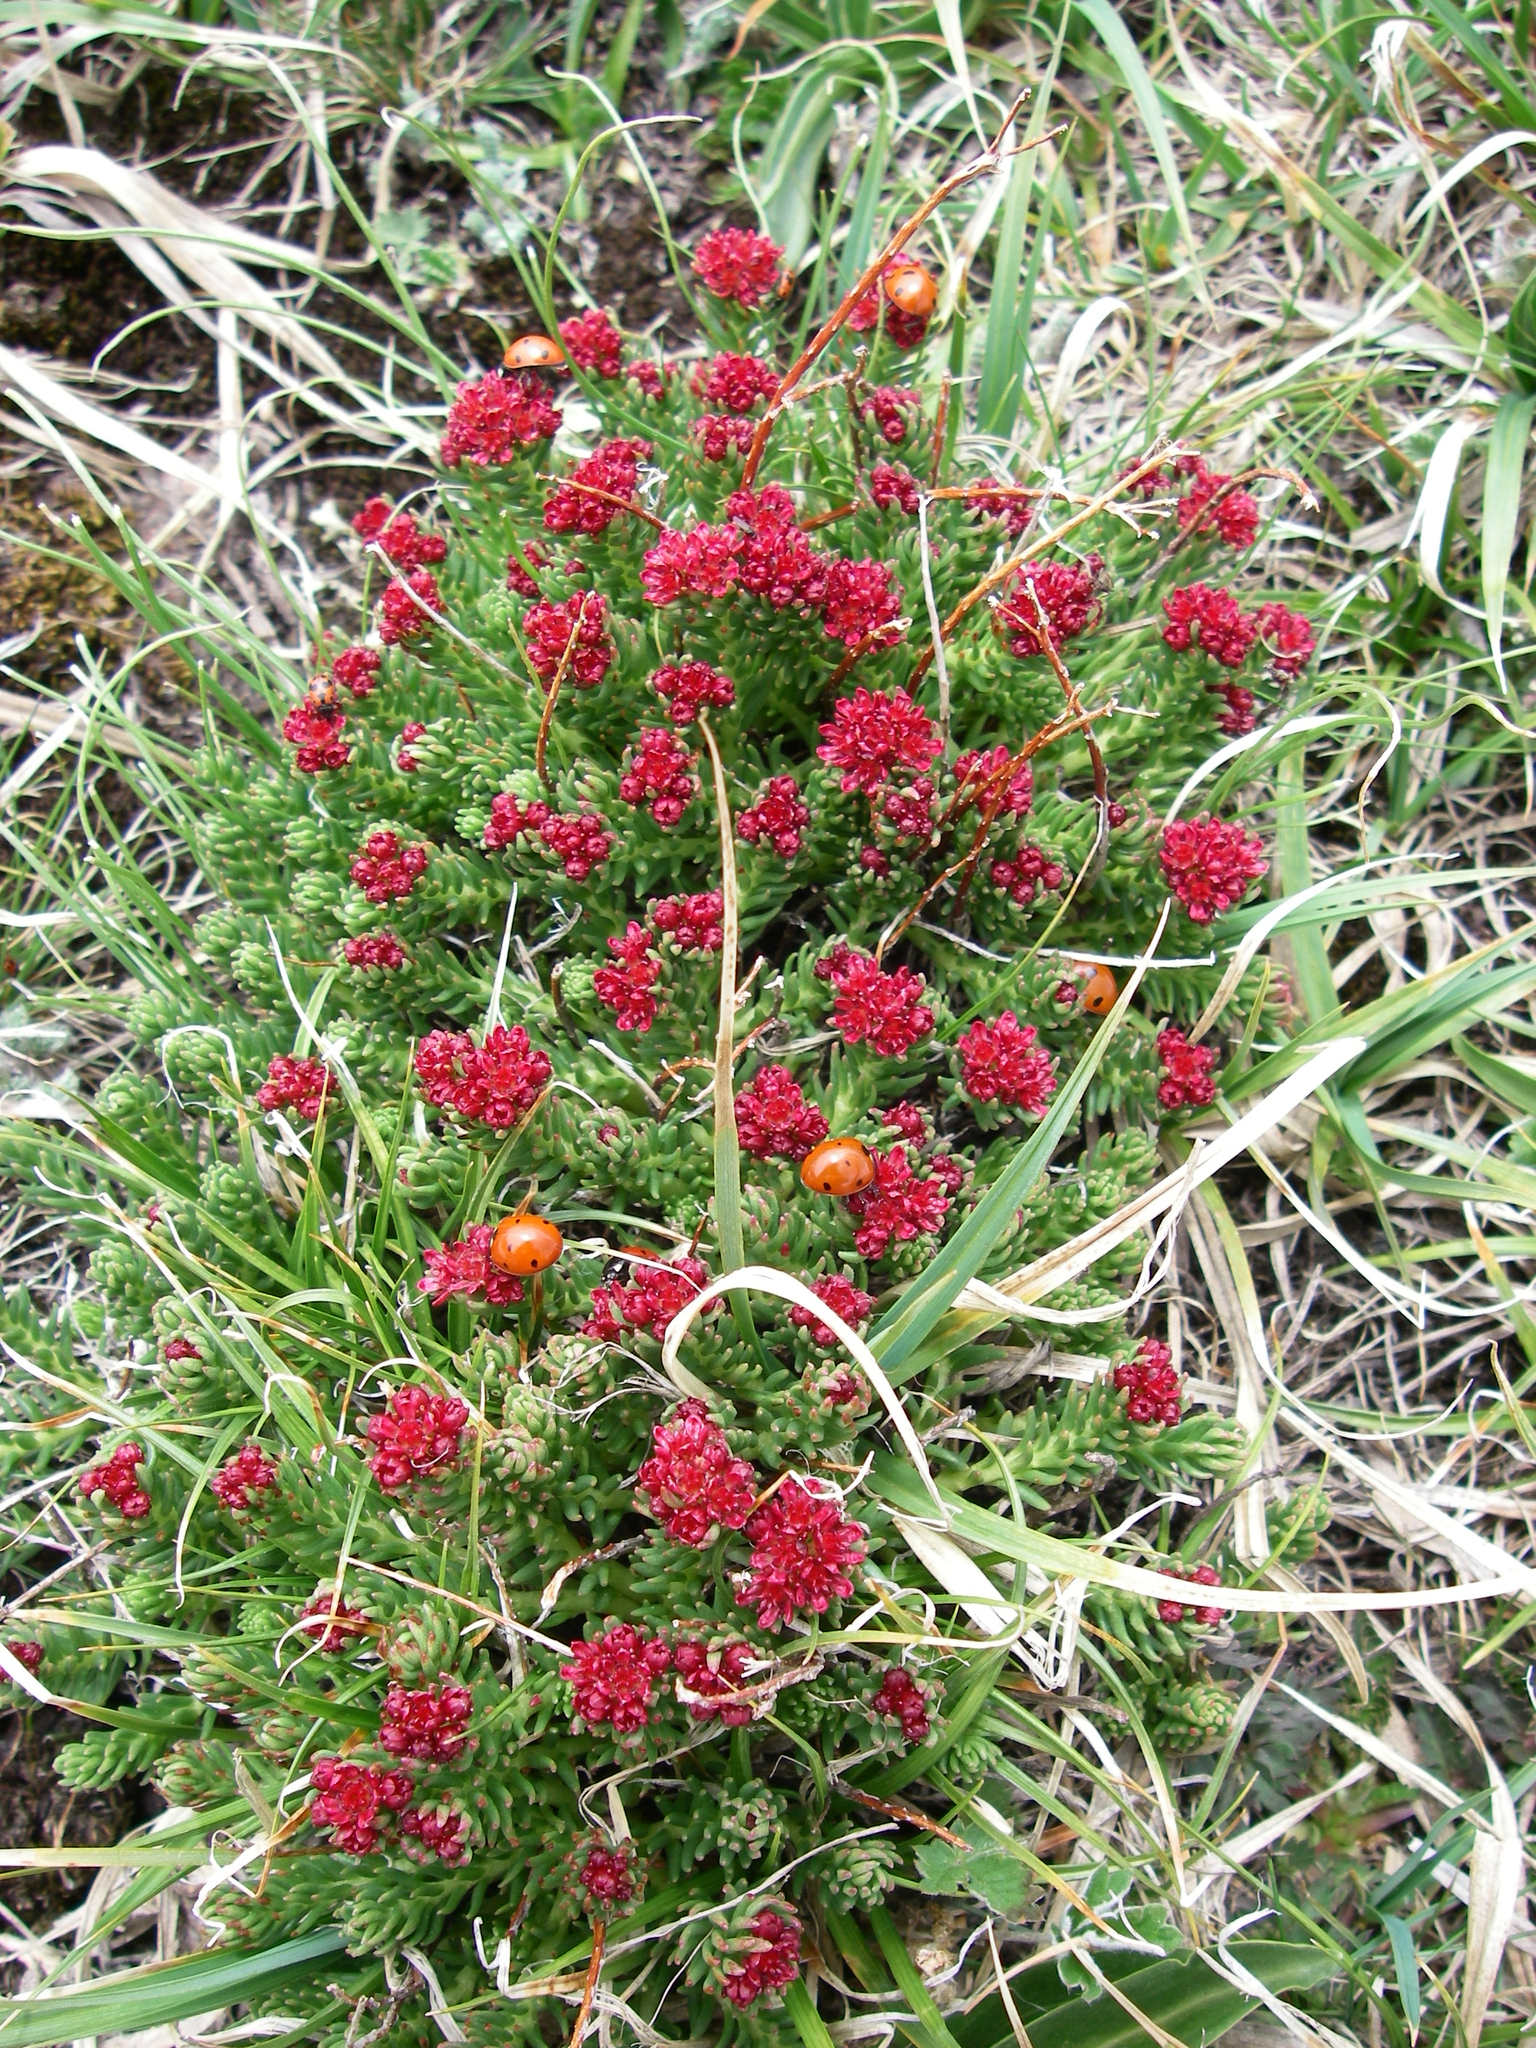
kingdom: Plantae
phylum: Tracheophyta
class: Magnoliopsida
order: Saxifragales
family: Crassulaceae
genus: Rhodiola
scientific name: Rhodiola coccinea
